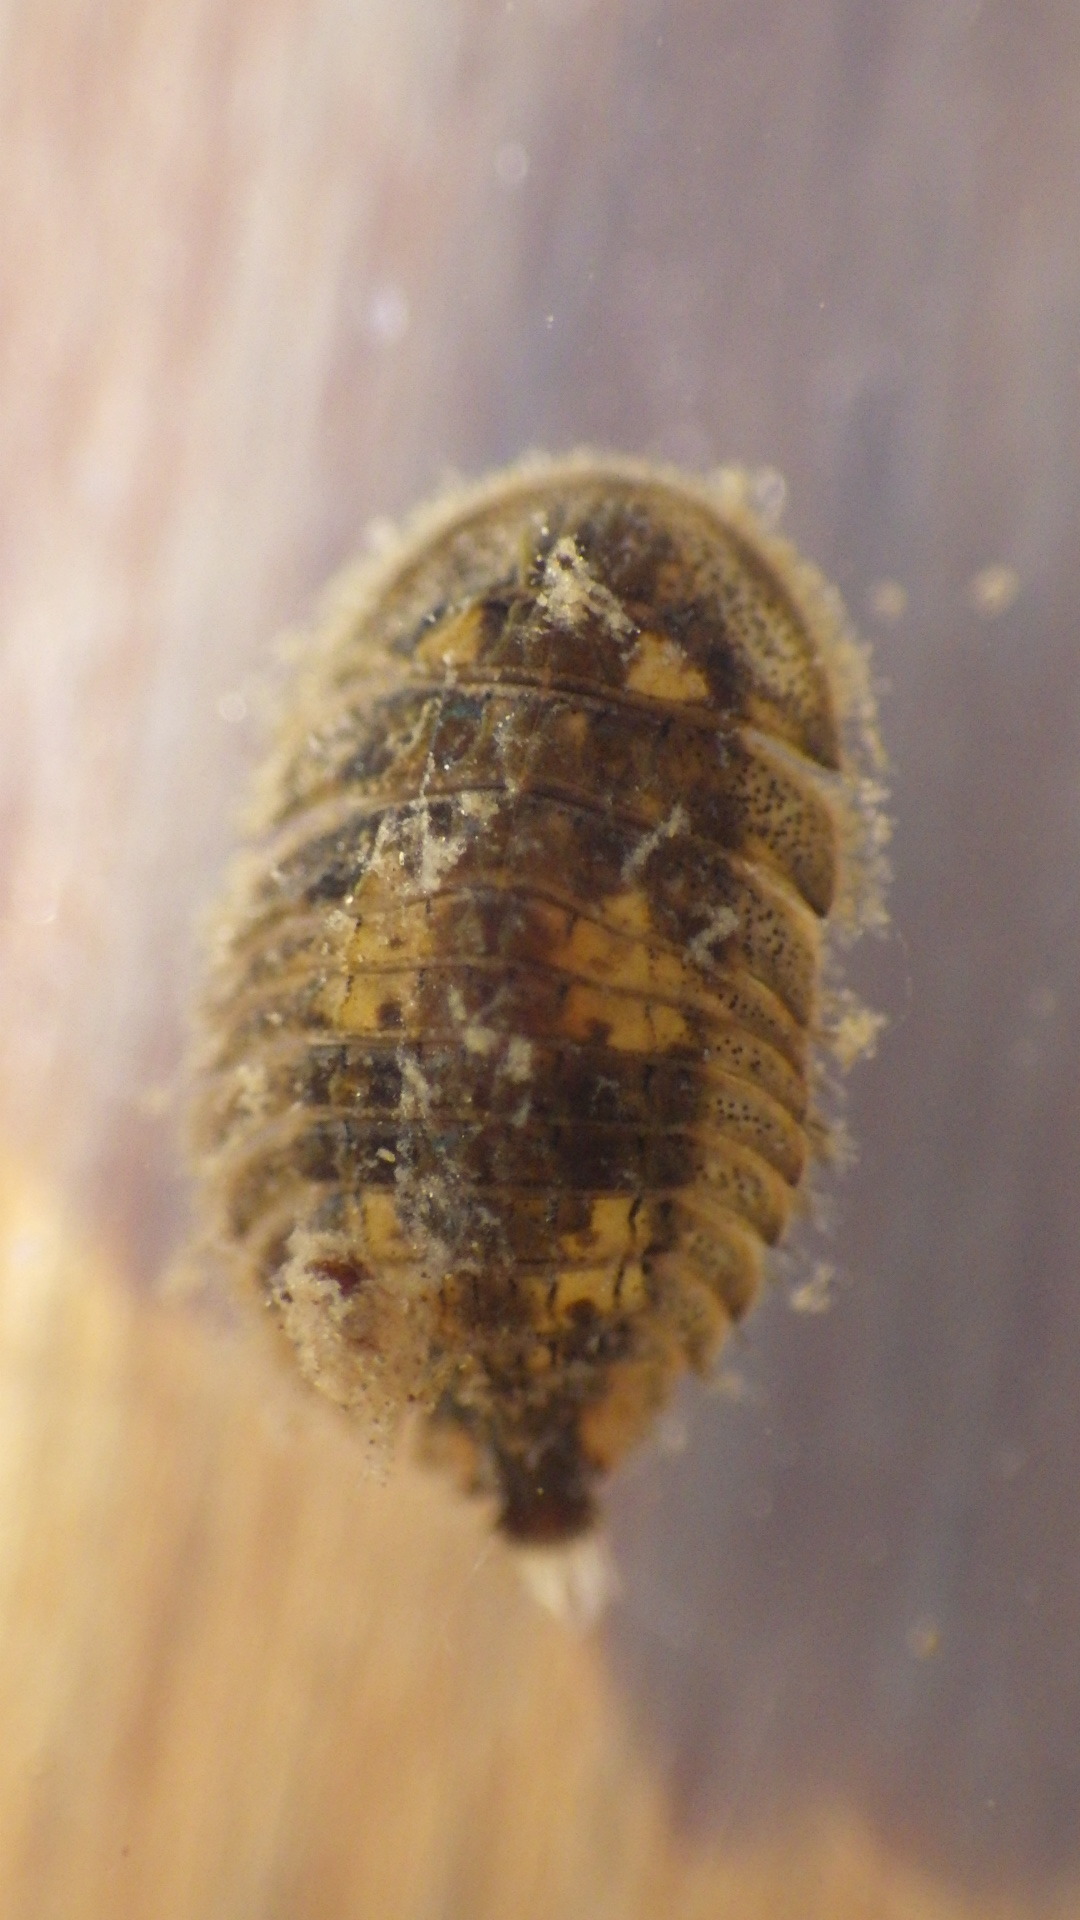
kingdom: Animalia
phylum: Arthropoda
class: Insecta
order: Coleoptera
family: Psephenidae
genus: Ectopria
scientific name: Ectopria nervosa
